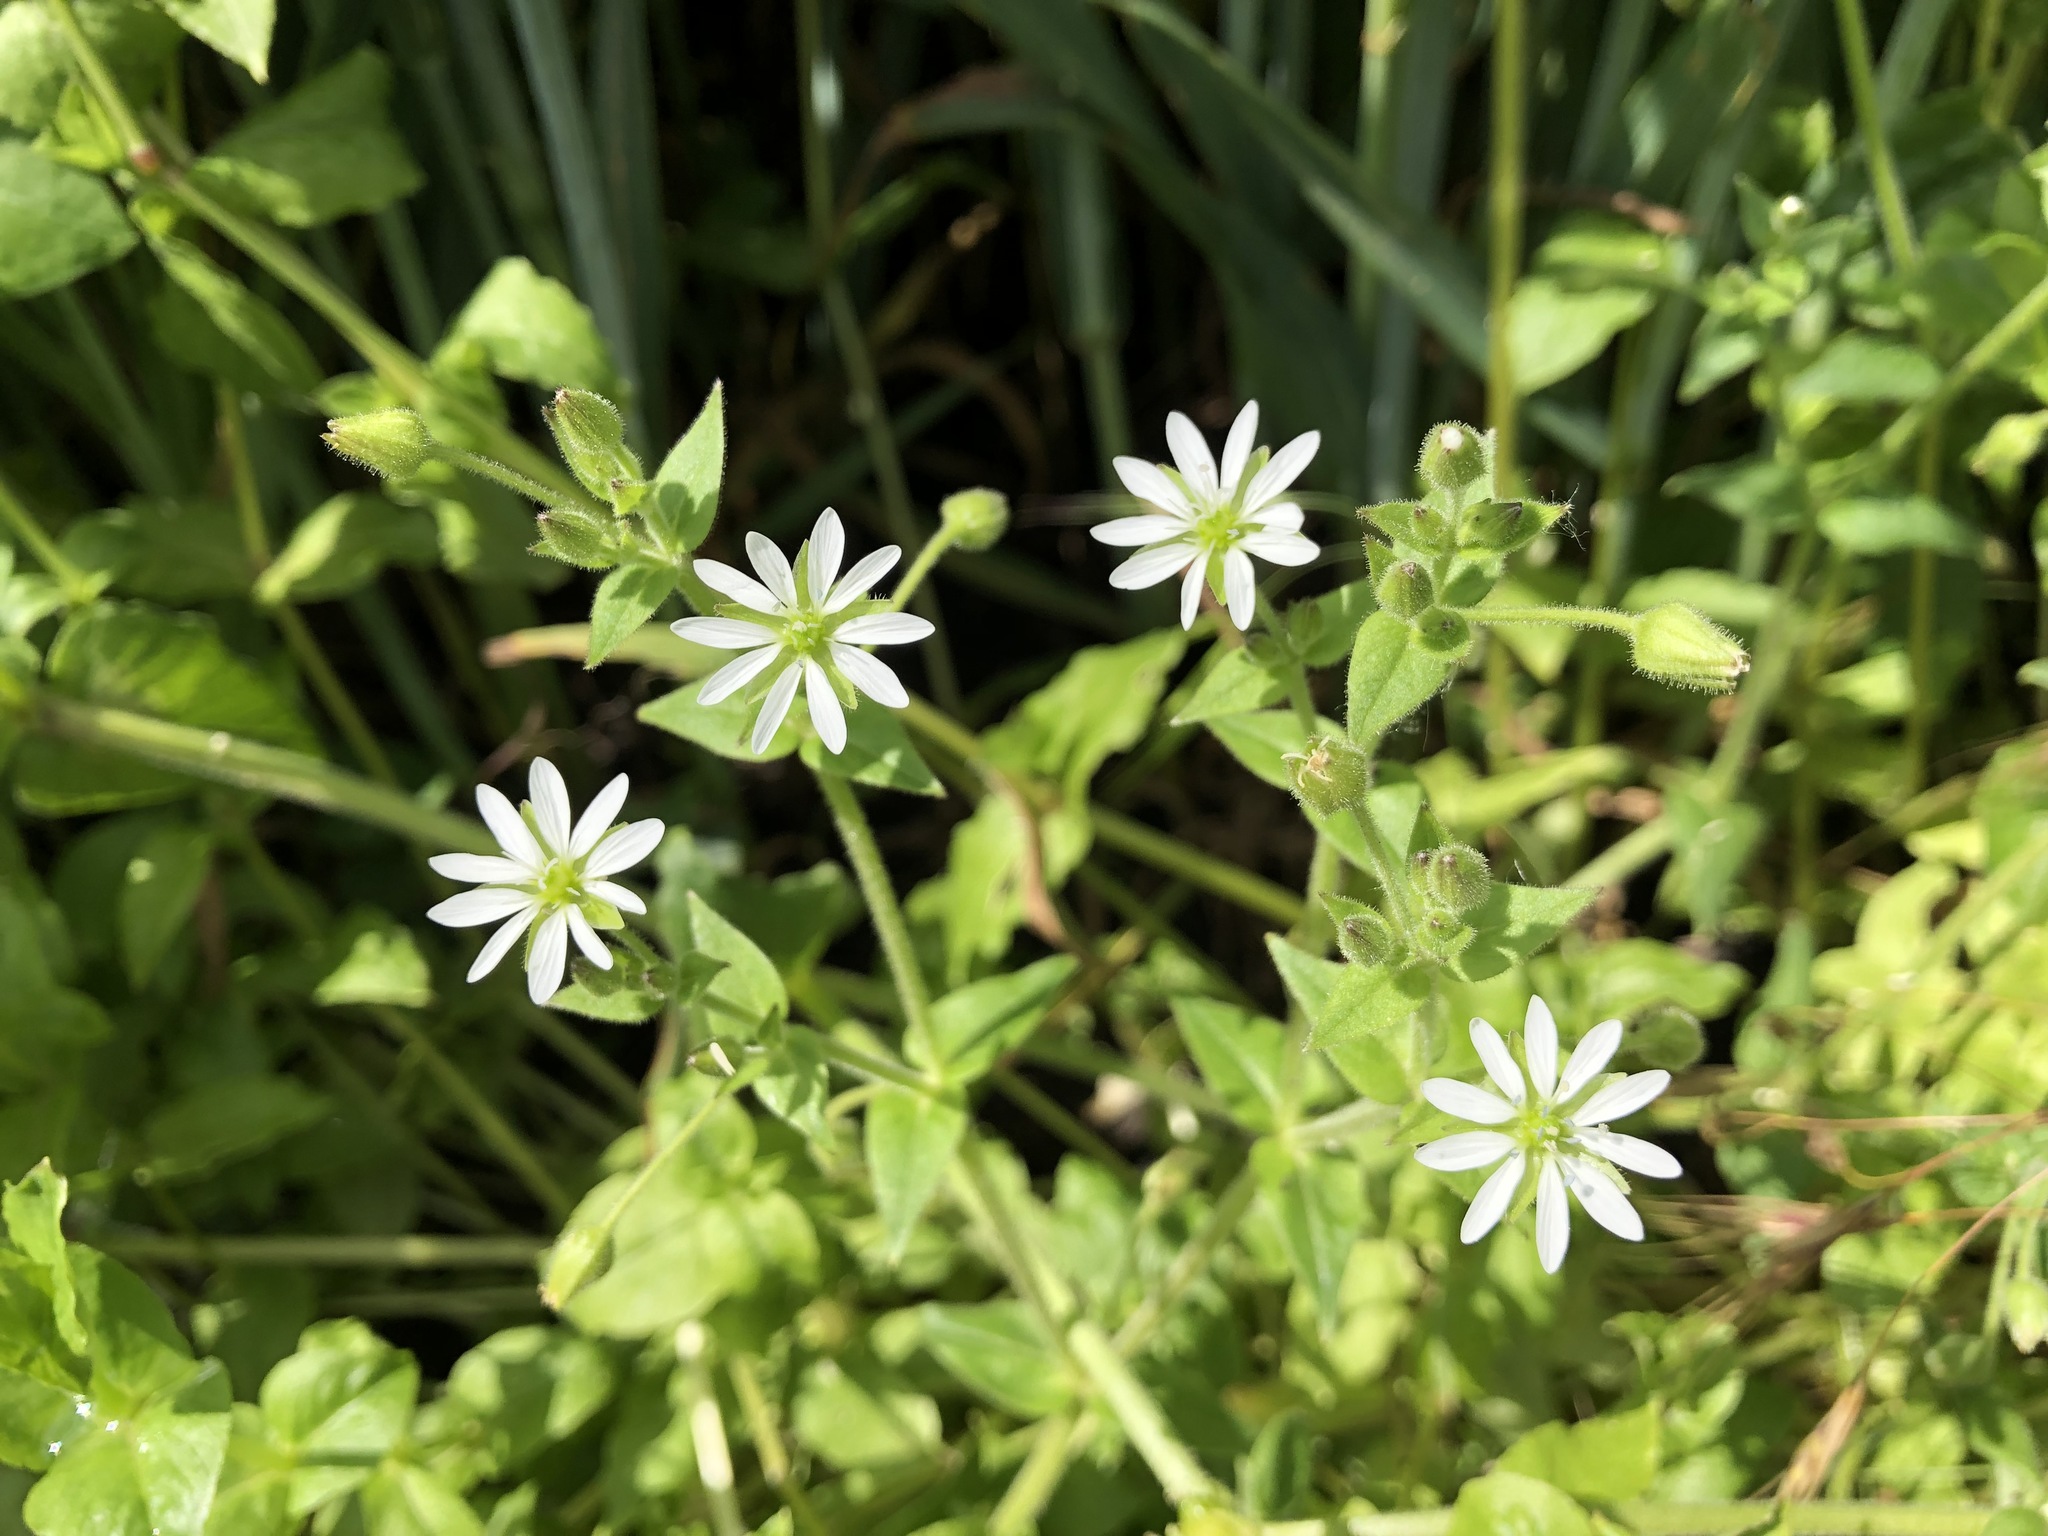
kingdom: Plantae
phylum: Tracheophyta
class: Magnoliopsida
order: Caryophyllales
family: Caryophyllaceae
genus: Stellaria
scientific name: Stellaria aquatica
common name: Water chickweed
